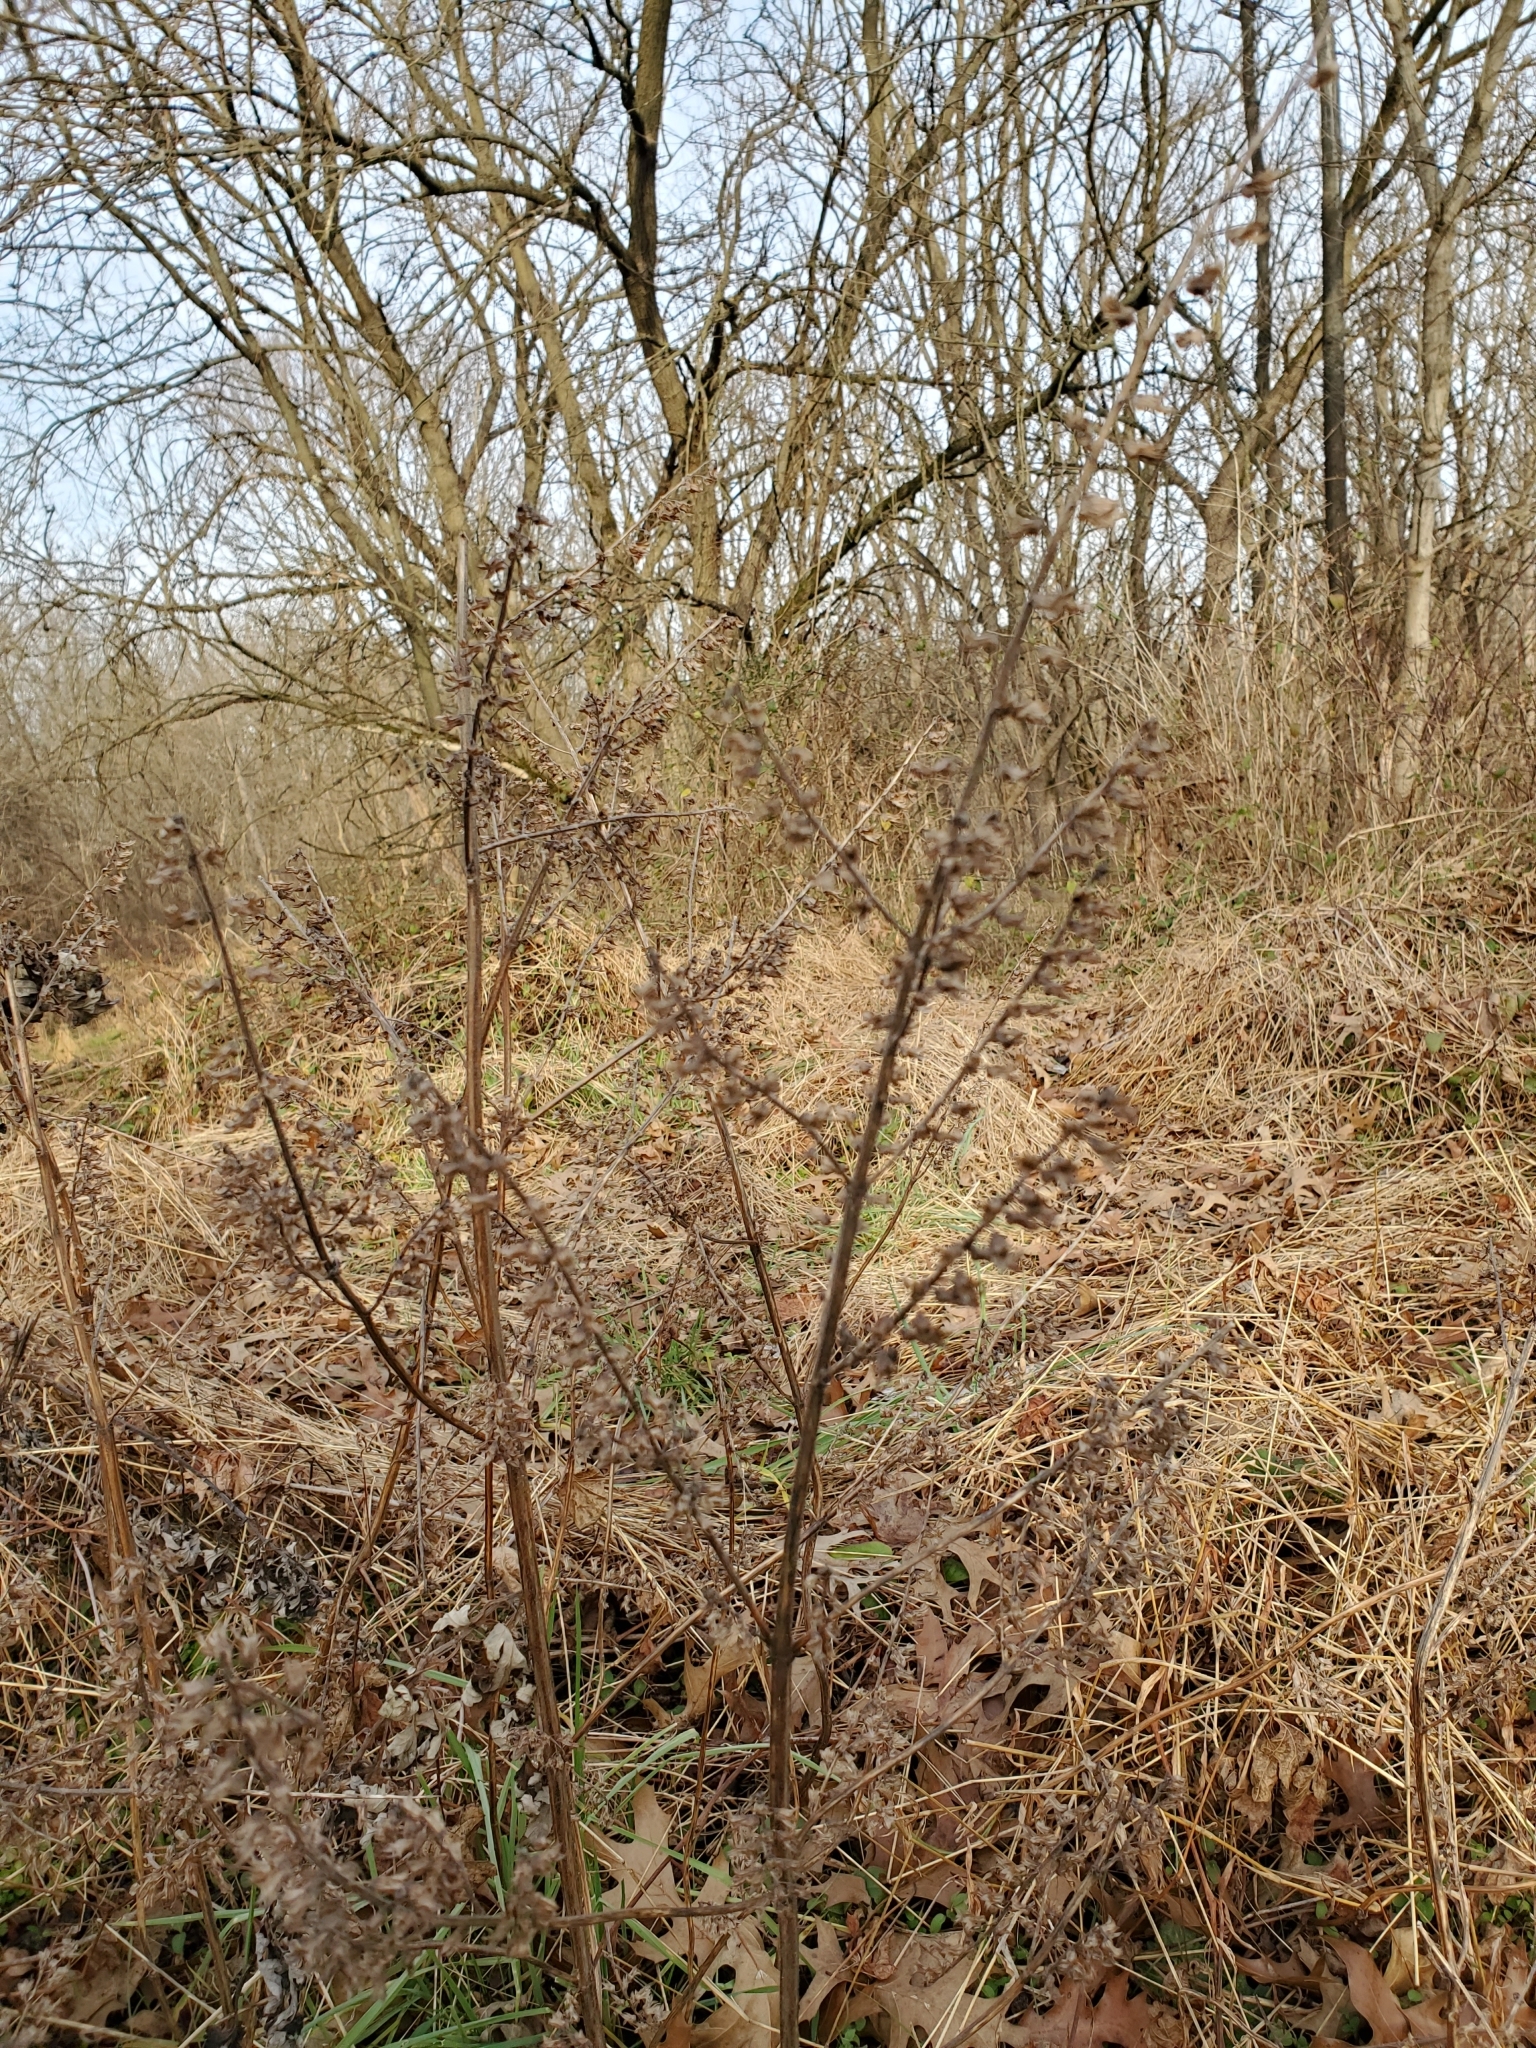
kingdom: Plantae
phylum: Tracheophyta
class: Magnoliopsida
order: Lamiales
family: Lamiaceae
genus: Perilla
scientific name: Perilla frutescens
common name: Perilla
